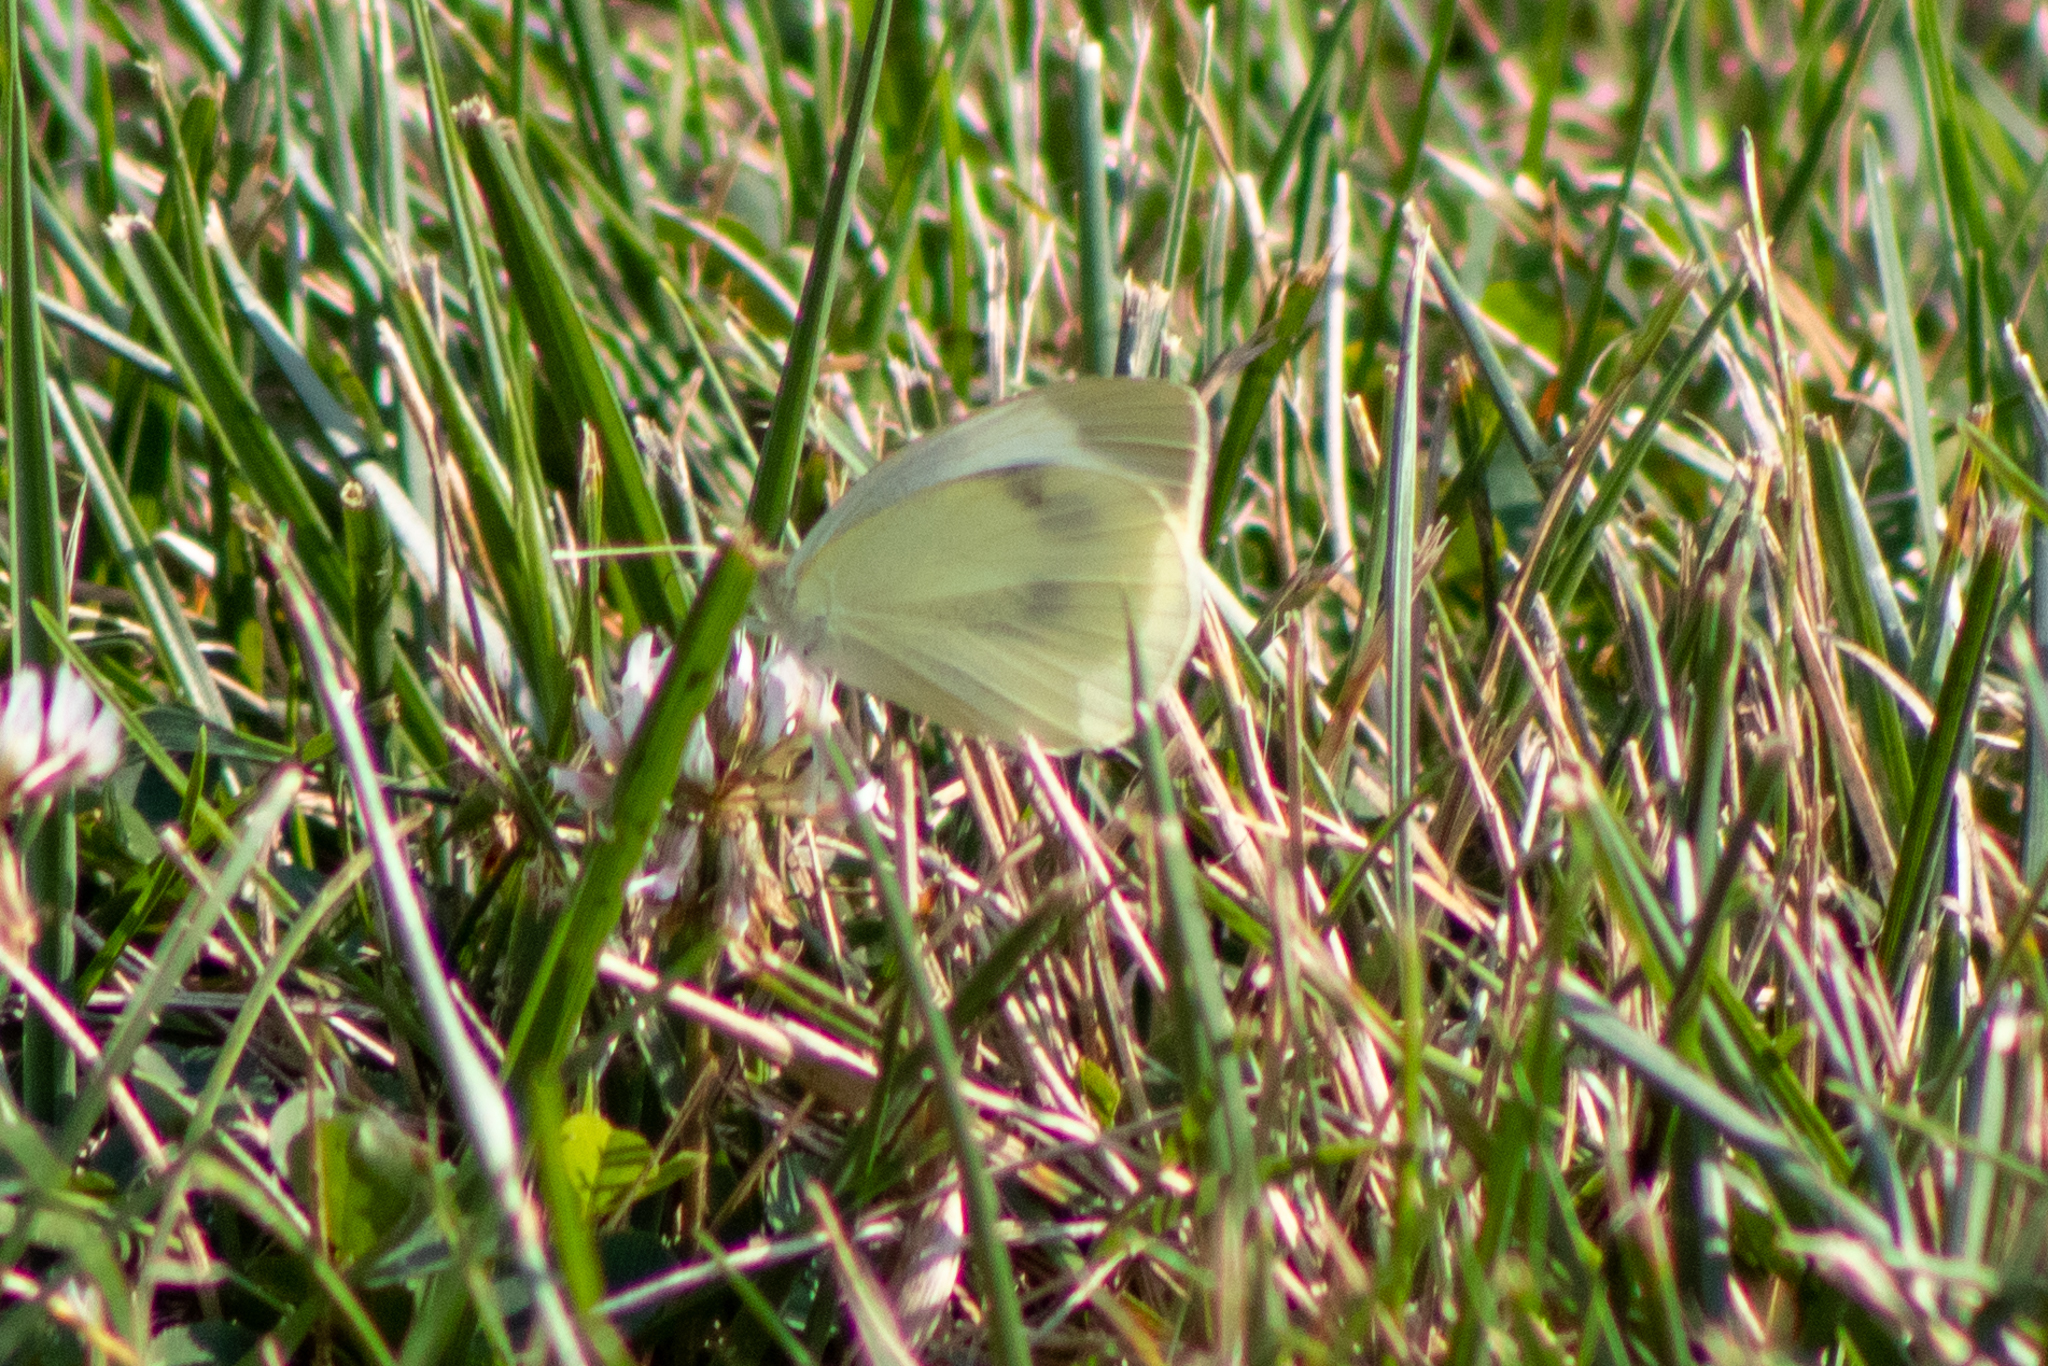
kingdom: Animalia
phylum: Arthropoda
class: Insecta
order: Lepidoptera
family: Pieridae
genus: Pieris
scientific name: Pieris rapae
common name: Small white
